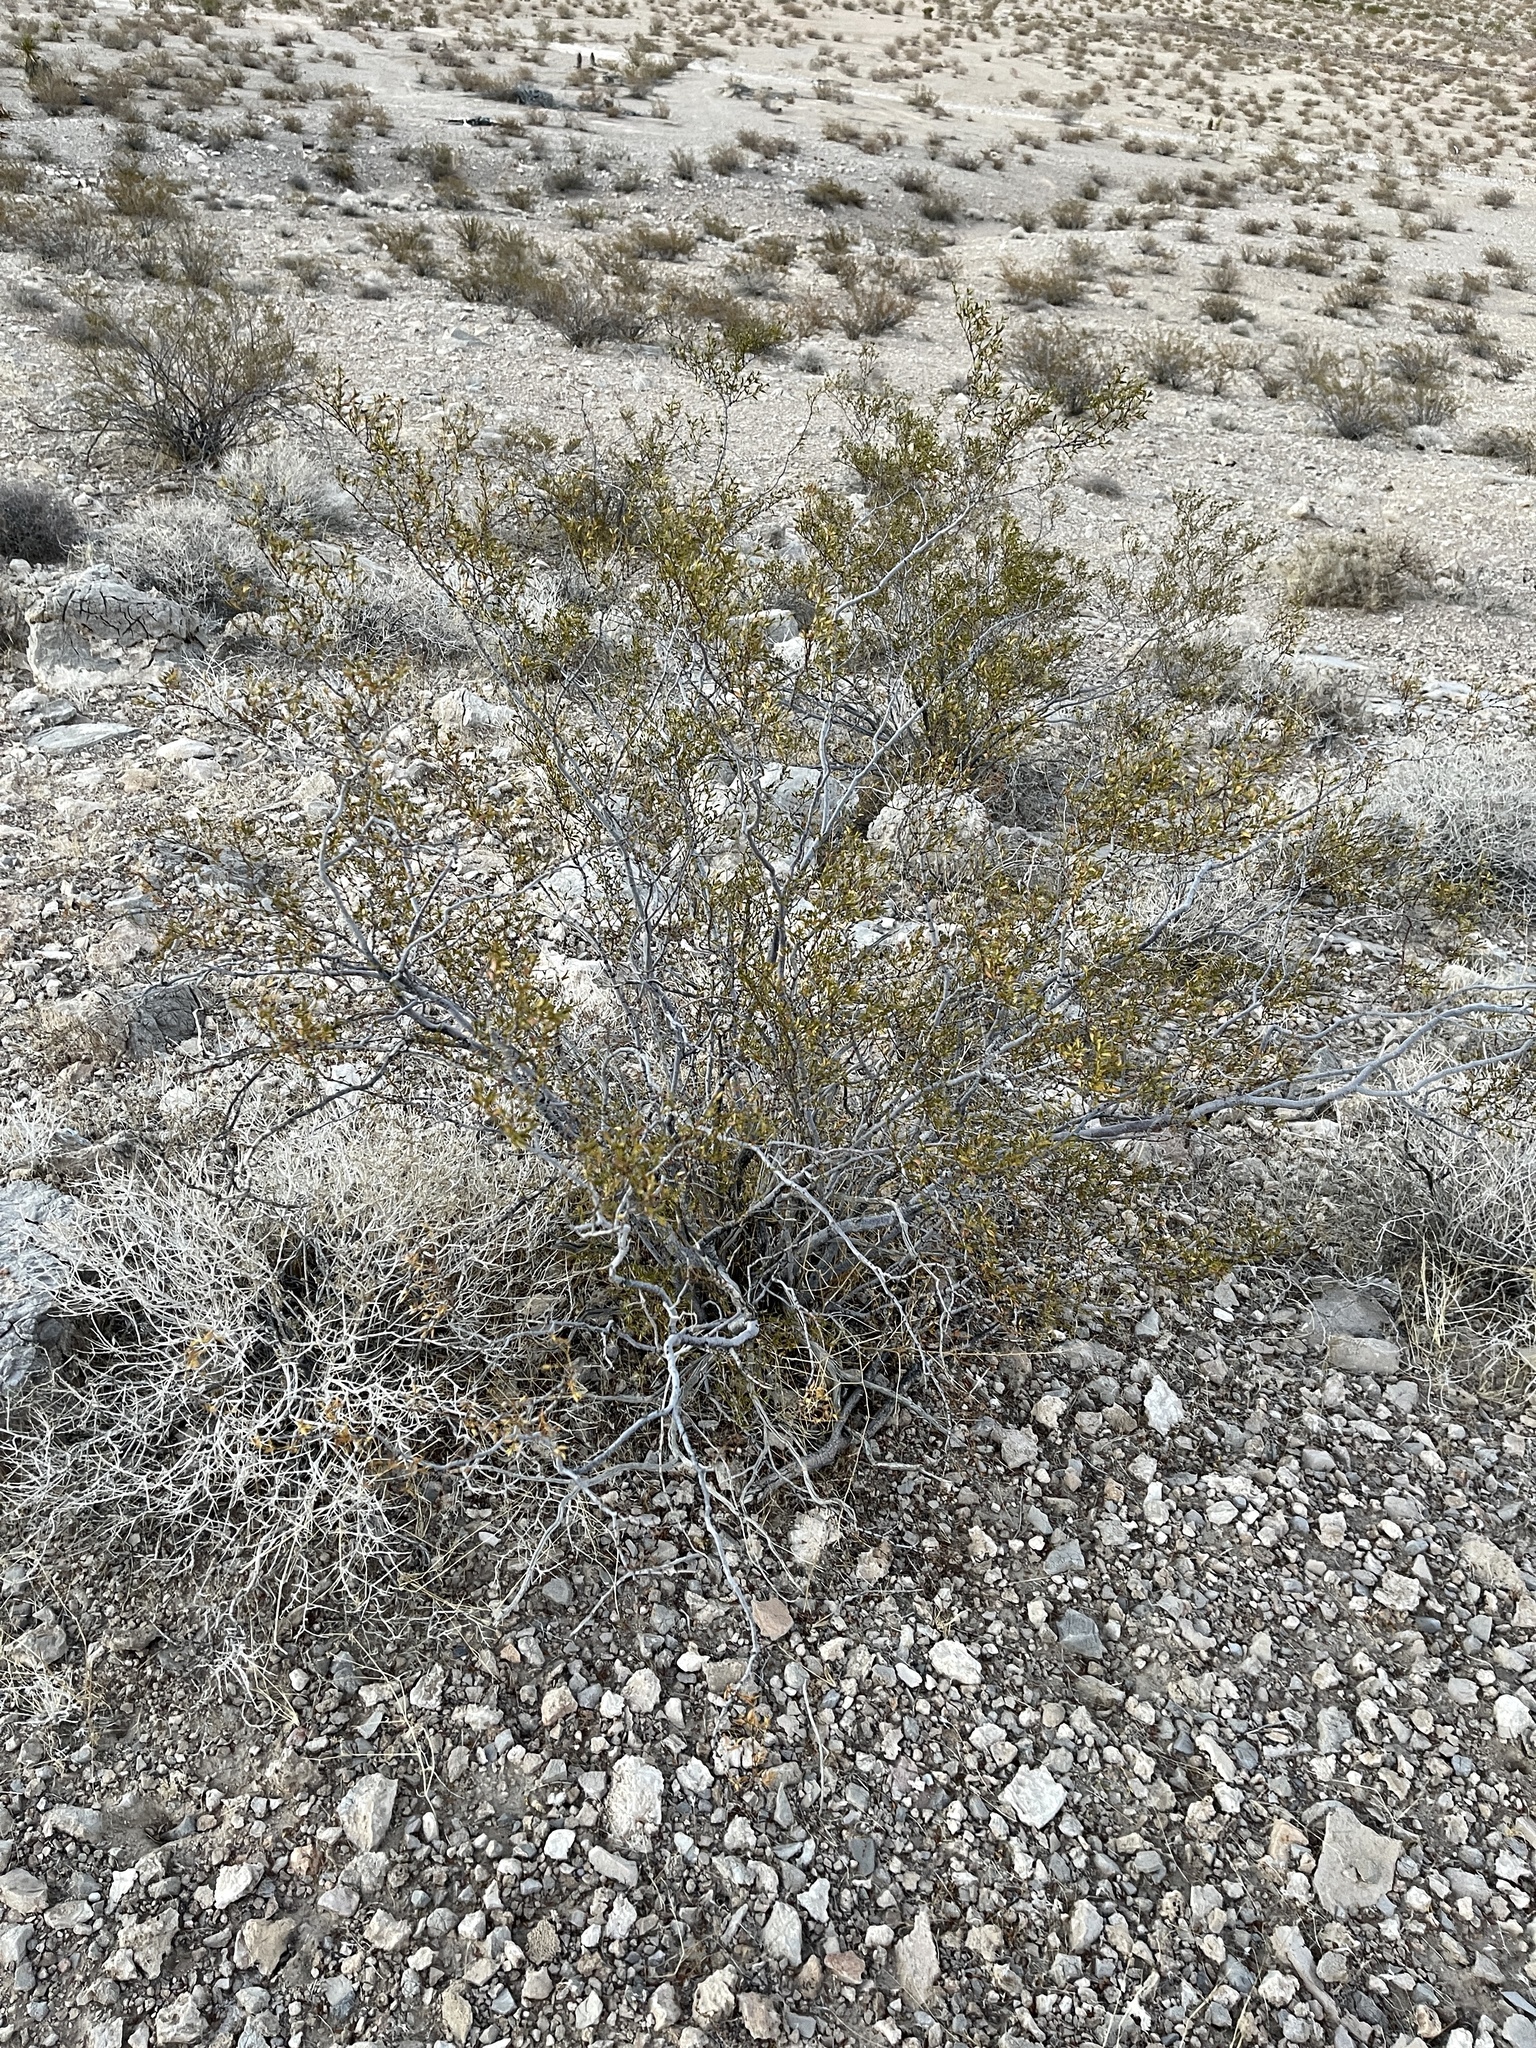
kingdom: Plantae
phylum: Tracheophyta
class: Magnoliopsida
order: Zygophyllales
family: Zygophyllaceae
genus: Larrea
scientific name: Larrea tridentata
